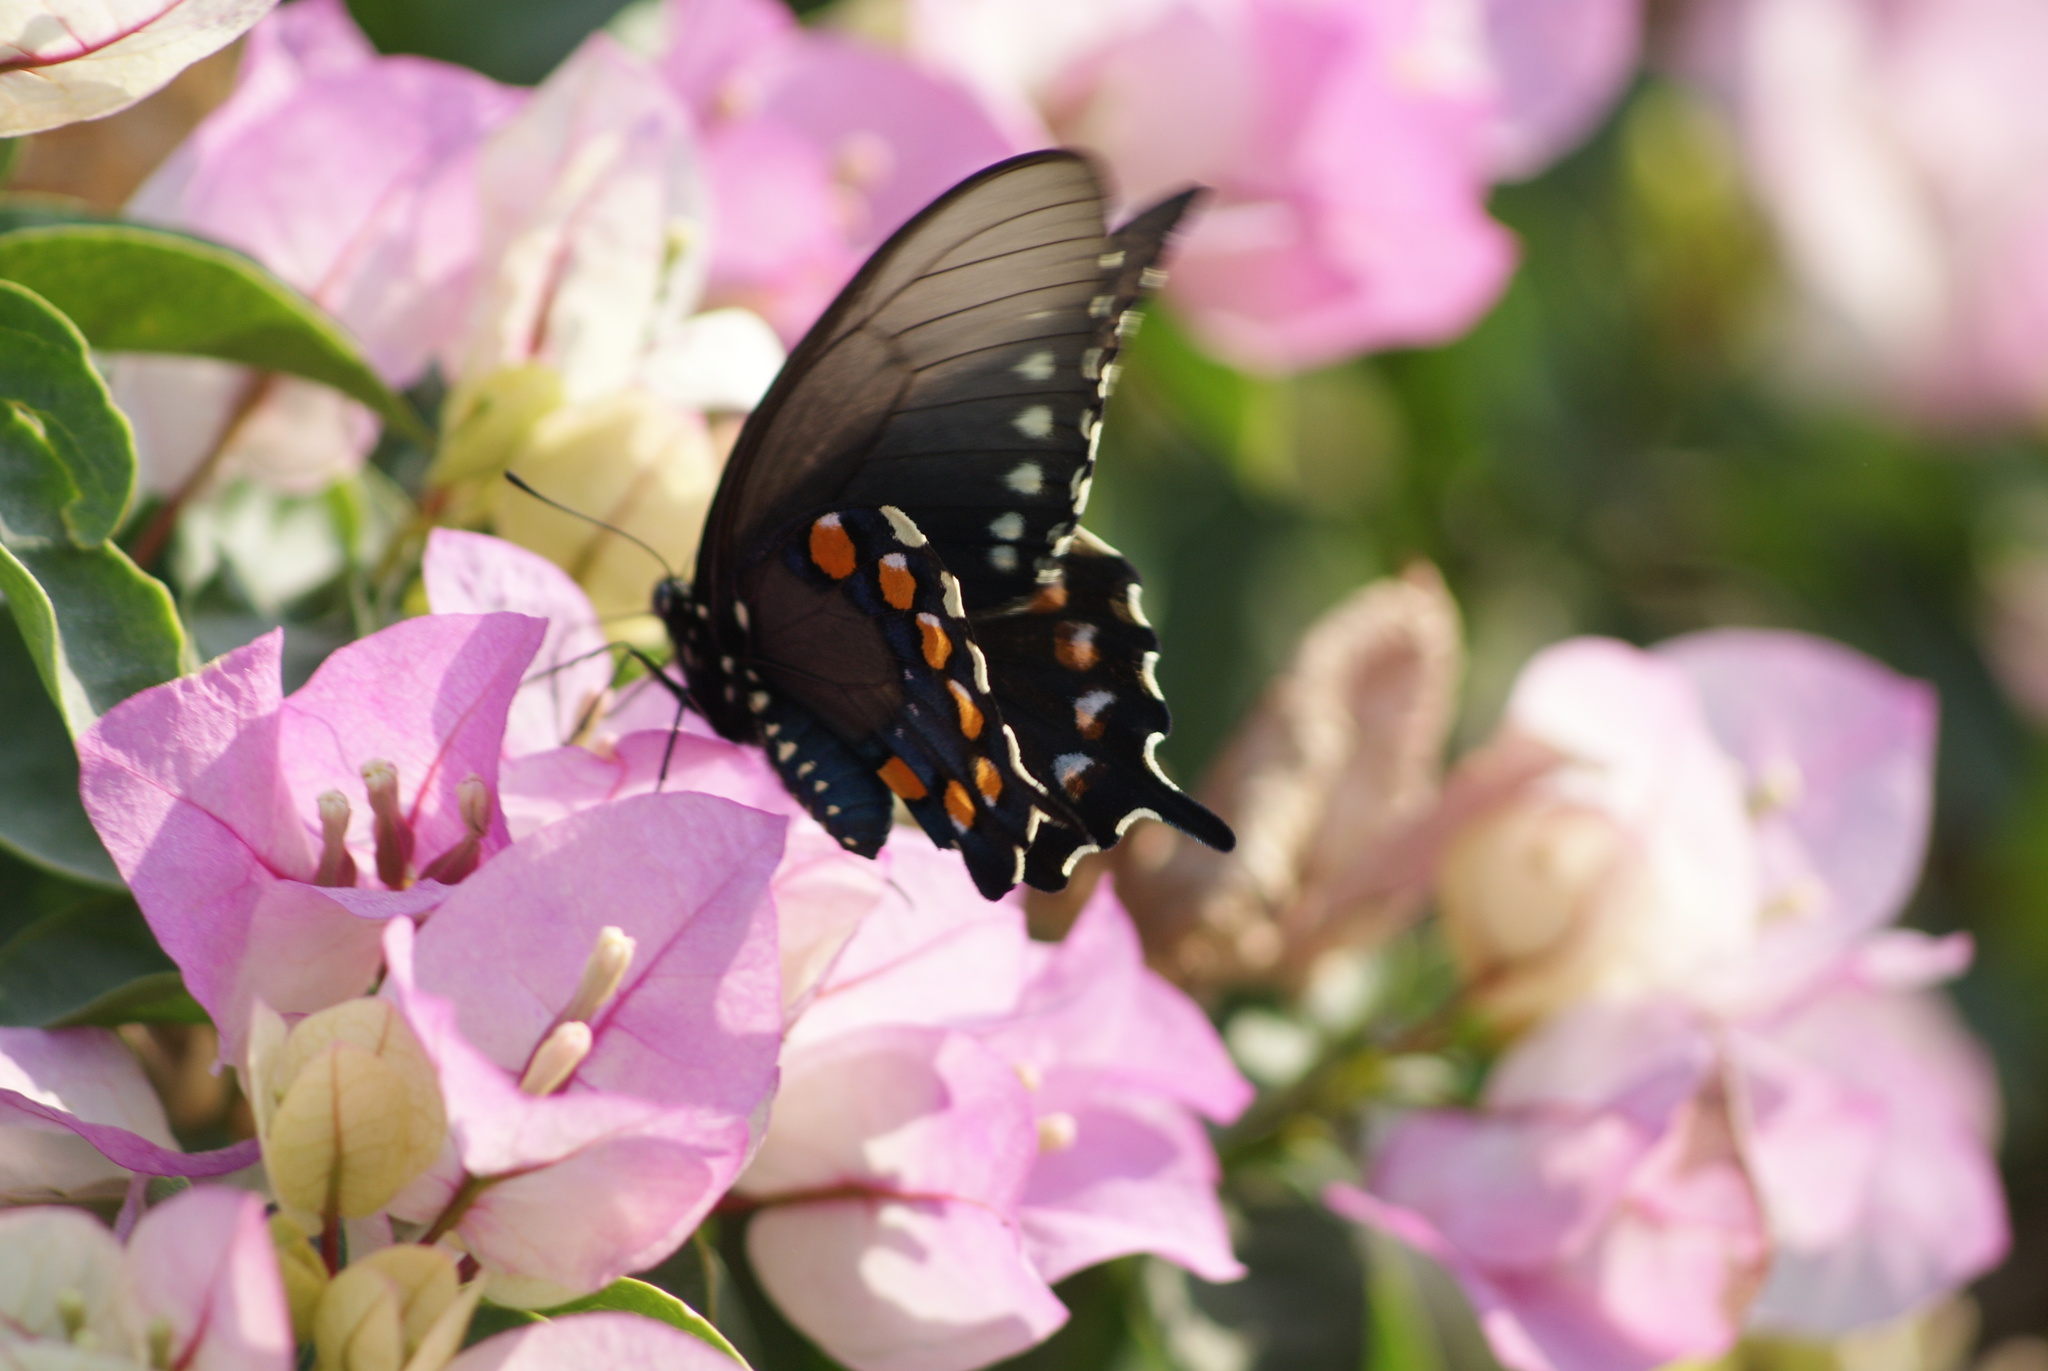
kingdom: Animalia
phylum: Arthropoda
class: Insecta
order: Lepidoptera
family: Papilionidae
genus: Battus
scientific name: Battus philenor
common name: Pipevine swallowtail
